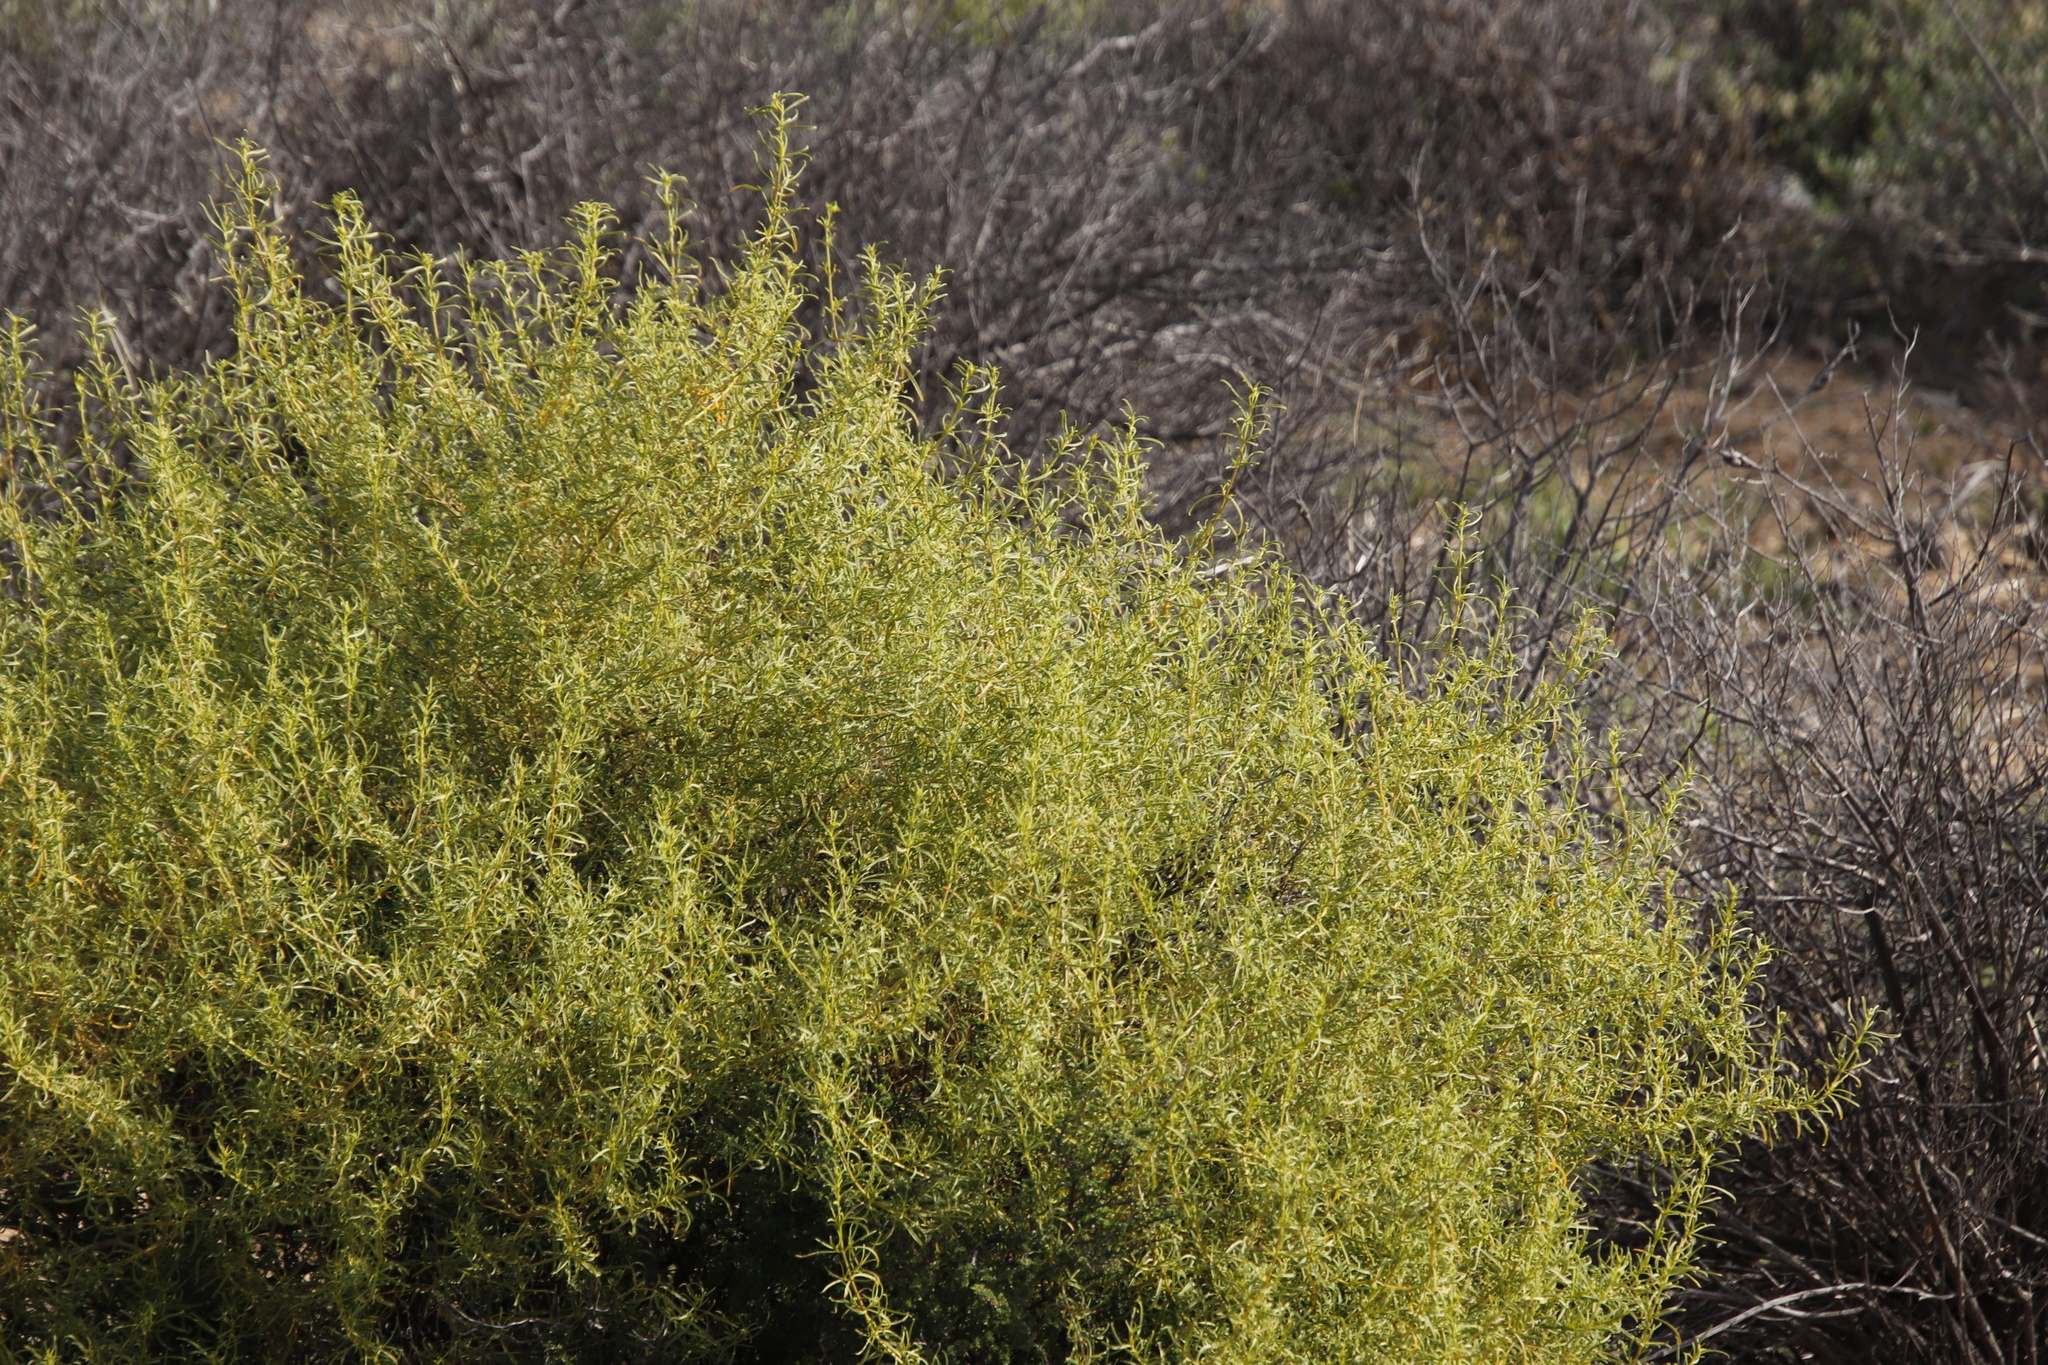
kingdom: Plantae
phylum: Tracheophyta
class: Magnoliopsida
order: Caryophyllales
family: Aizoaceae
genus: Aizoon
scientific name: Aizoon africanum
